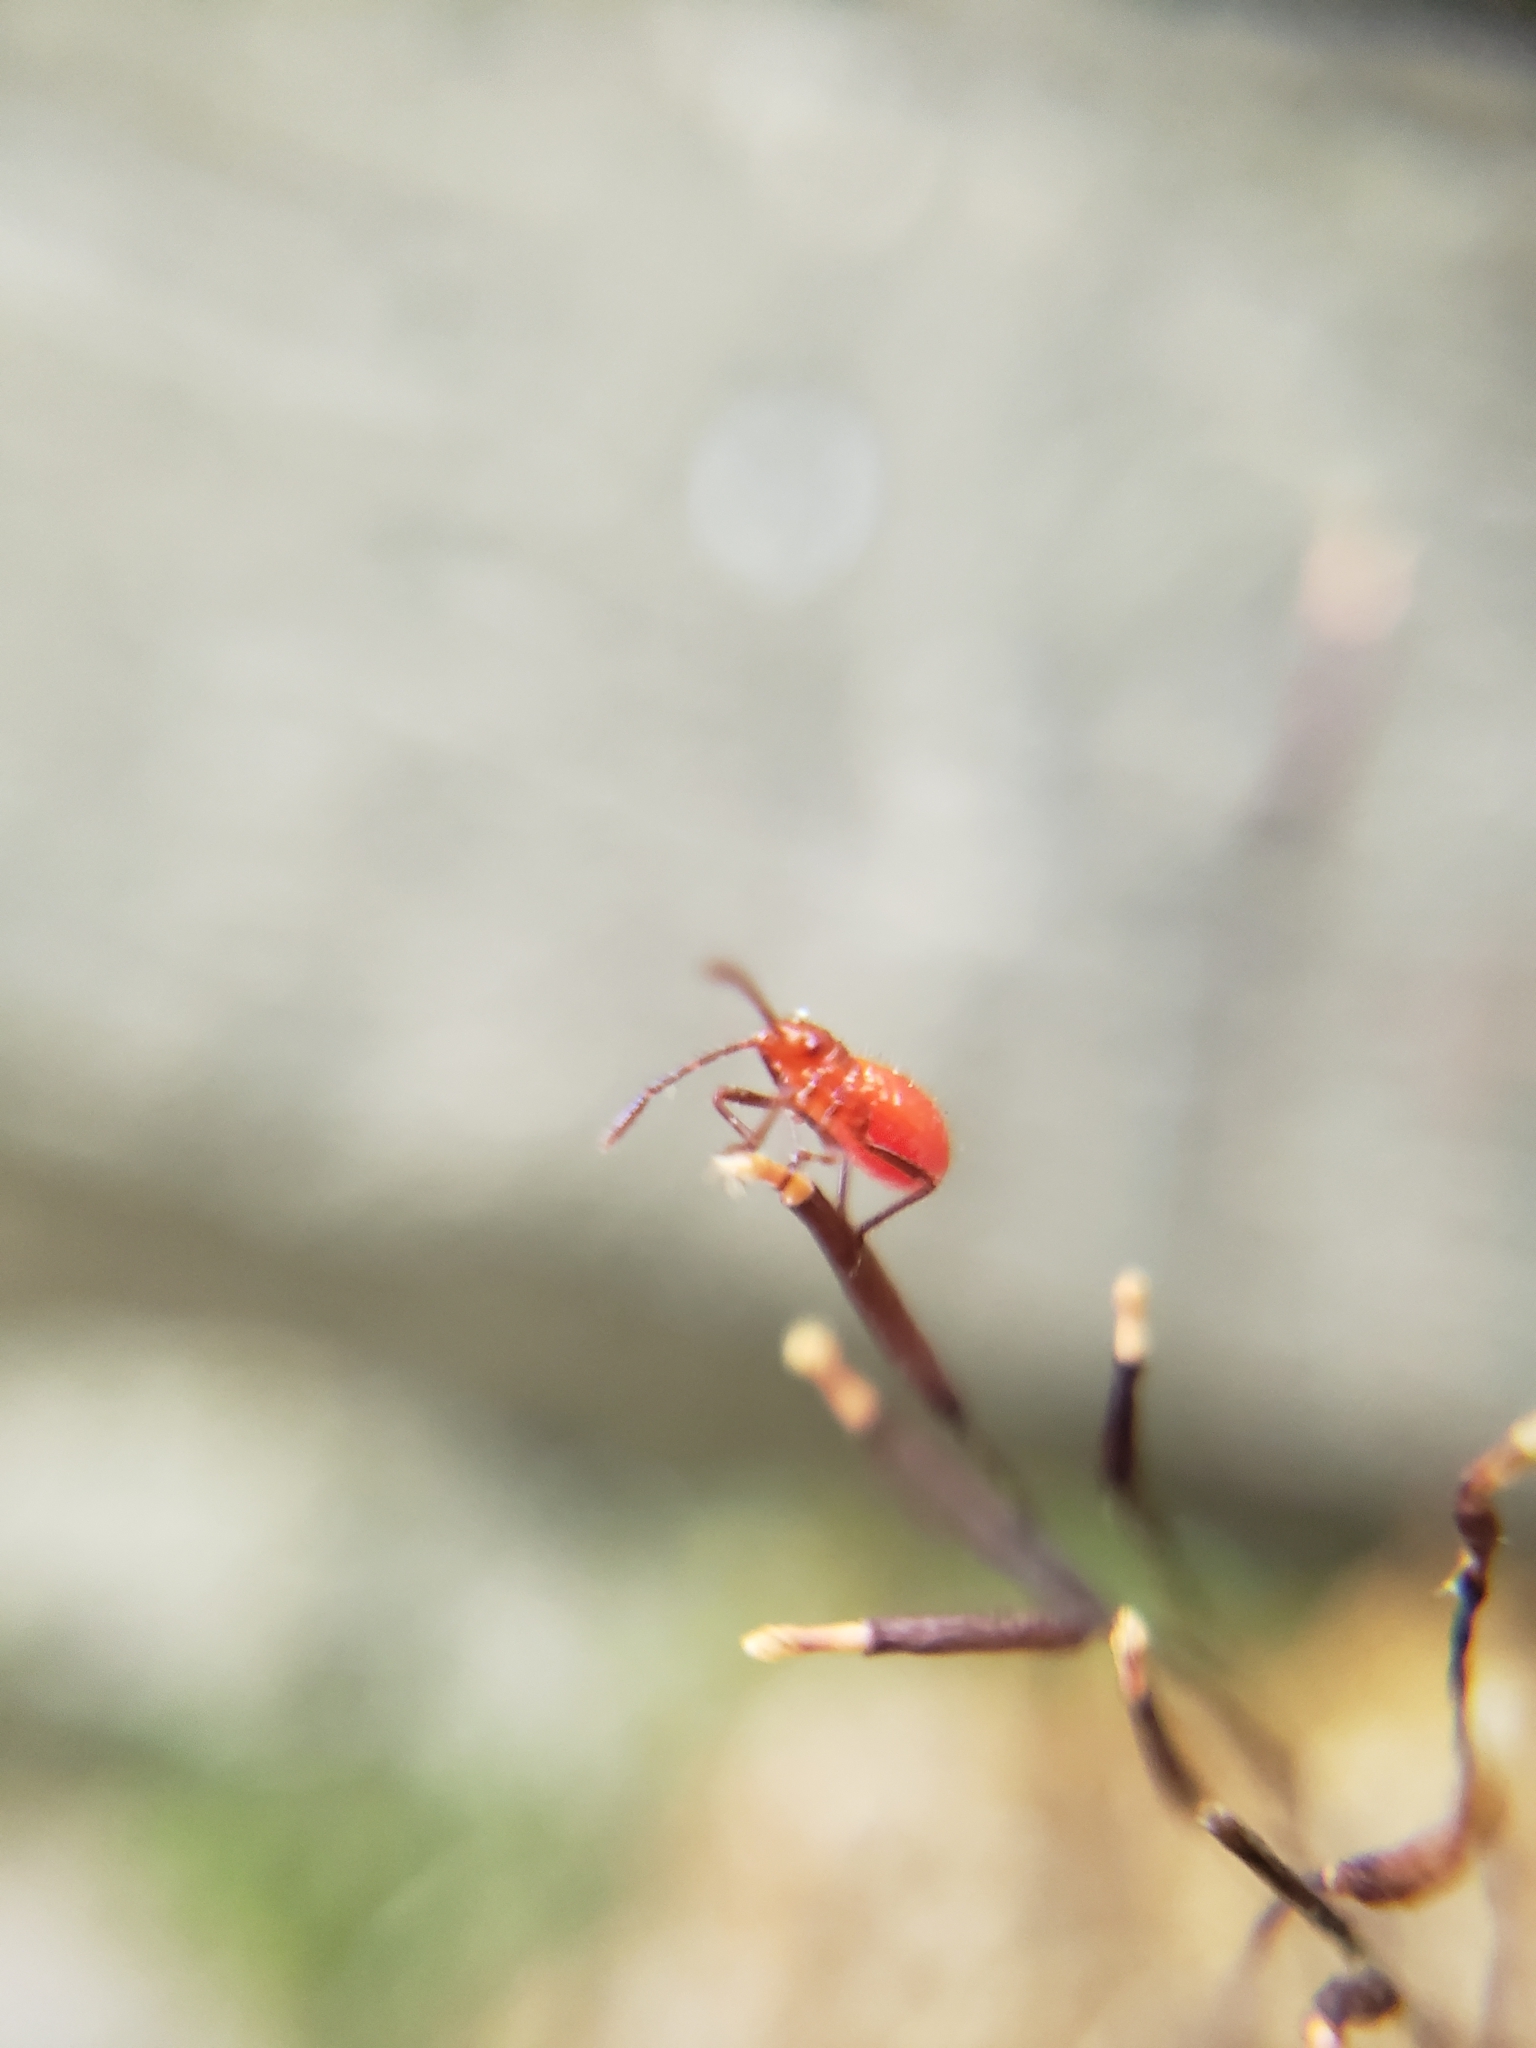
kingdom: Animalia
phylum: Arthropoda
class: Insecta
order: Hemiptera
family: Rhopalidae
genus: Boisea
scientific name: Boisea
